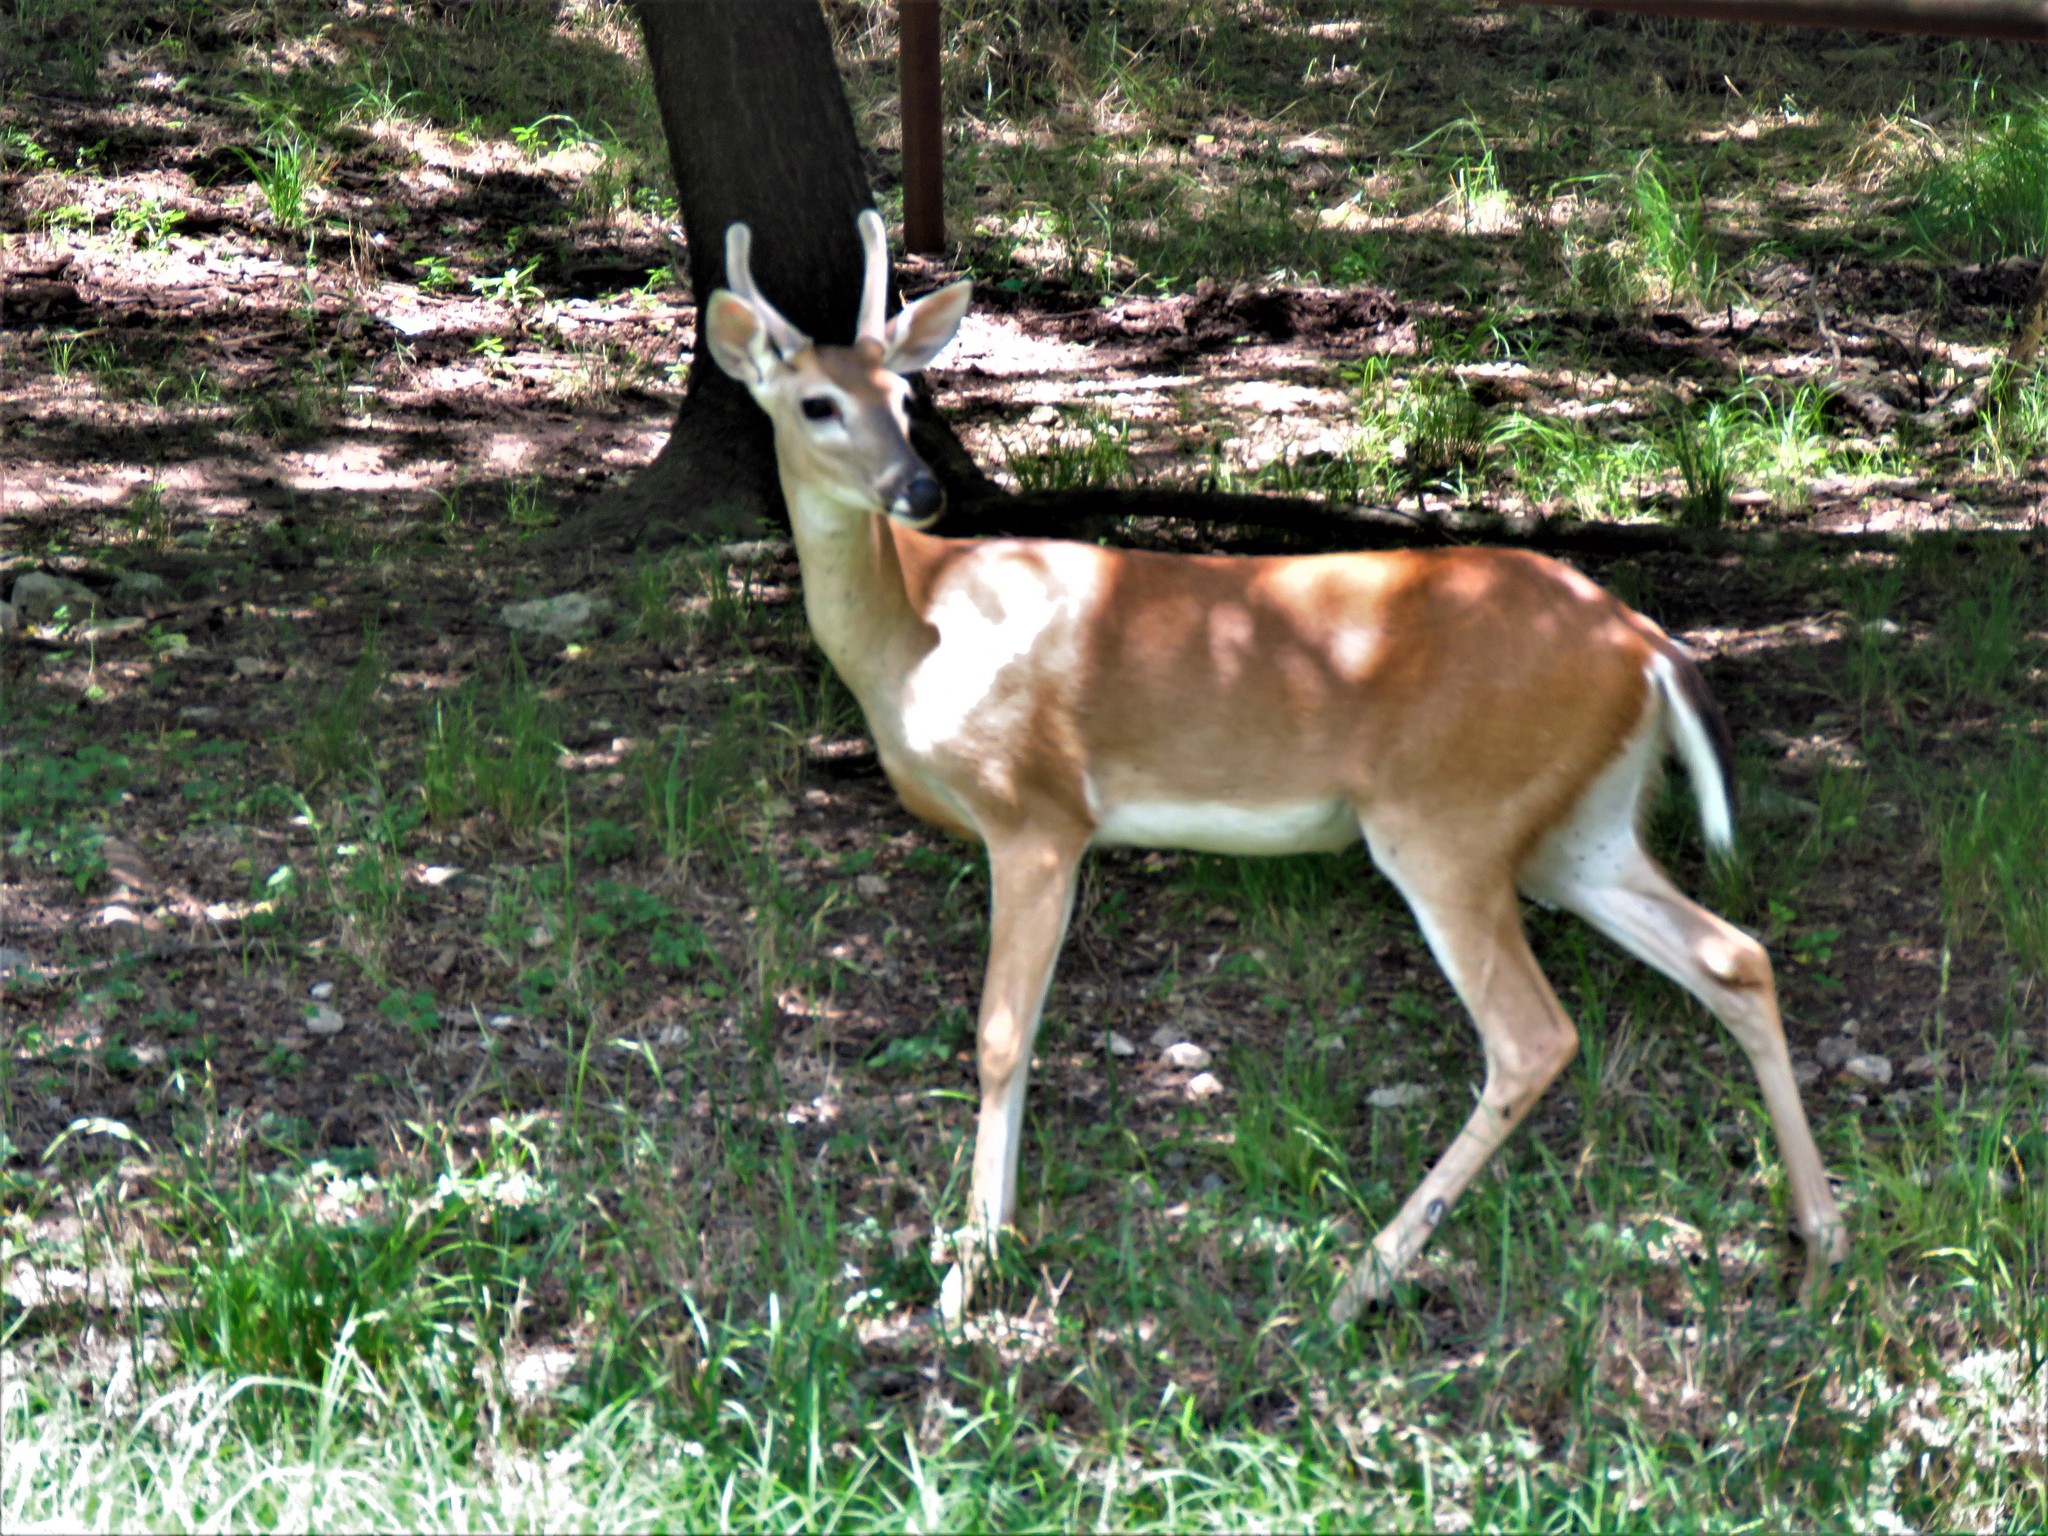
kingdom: Animalia
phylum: Chordata
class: Mammalia
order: Artiodactyla
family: Cervidae
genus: Odocoileus
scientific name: Odocoileus virginianus
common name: White-tailed deer
